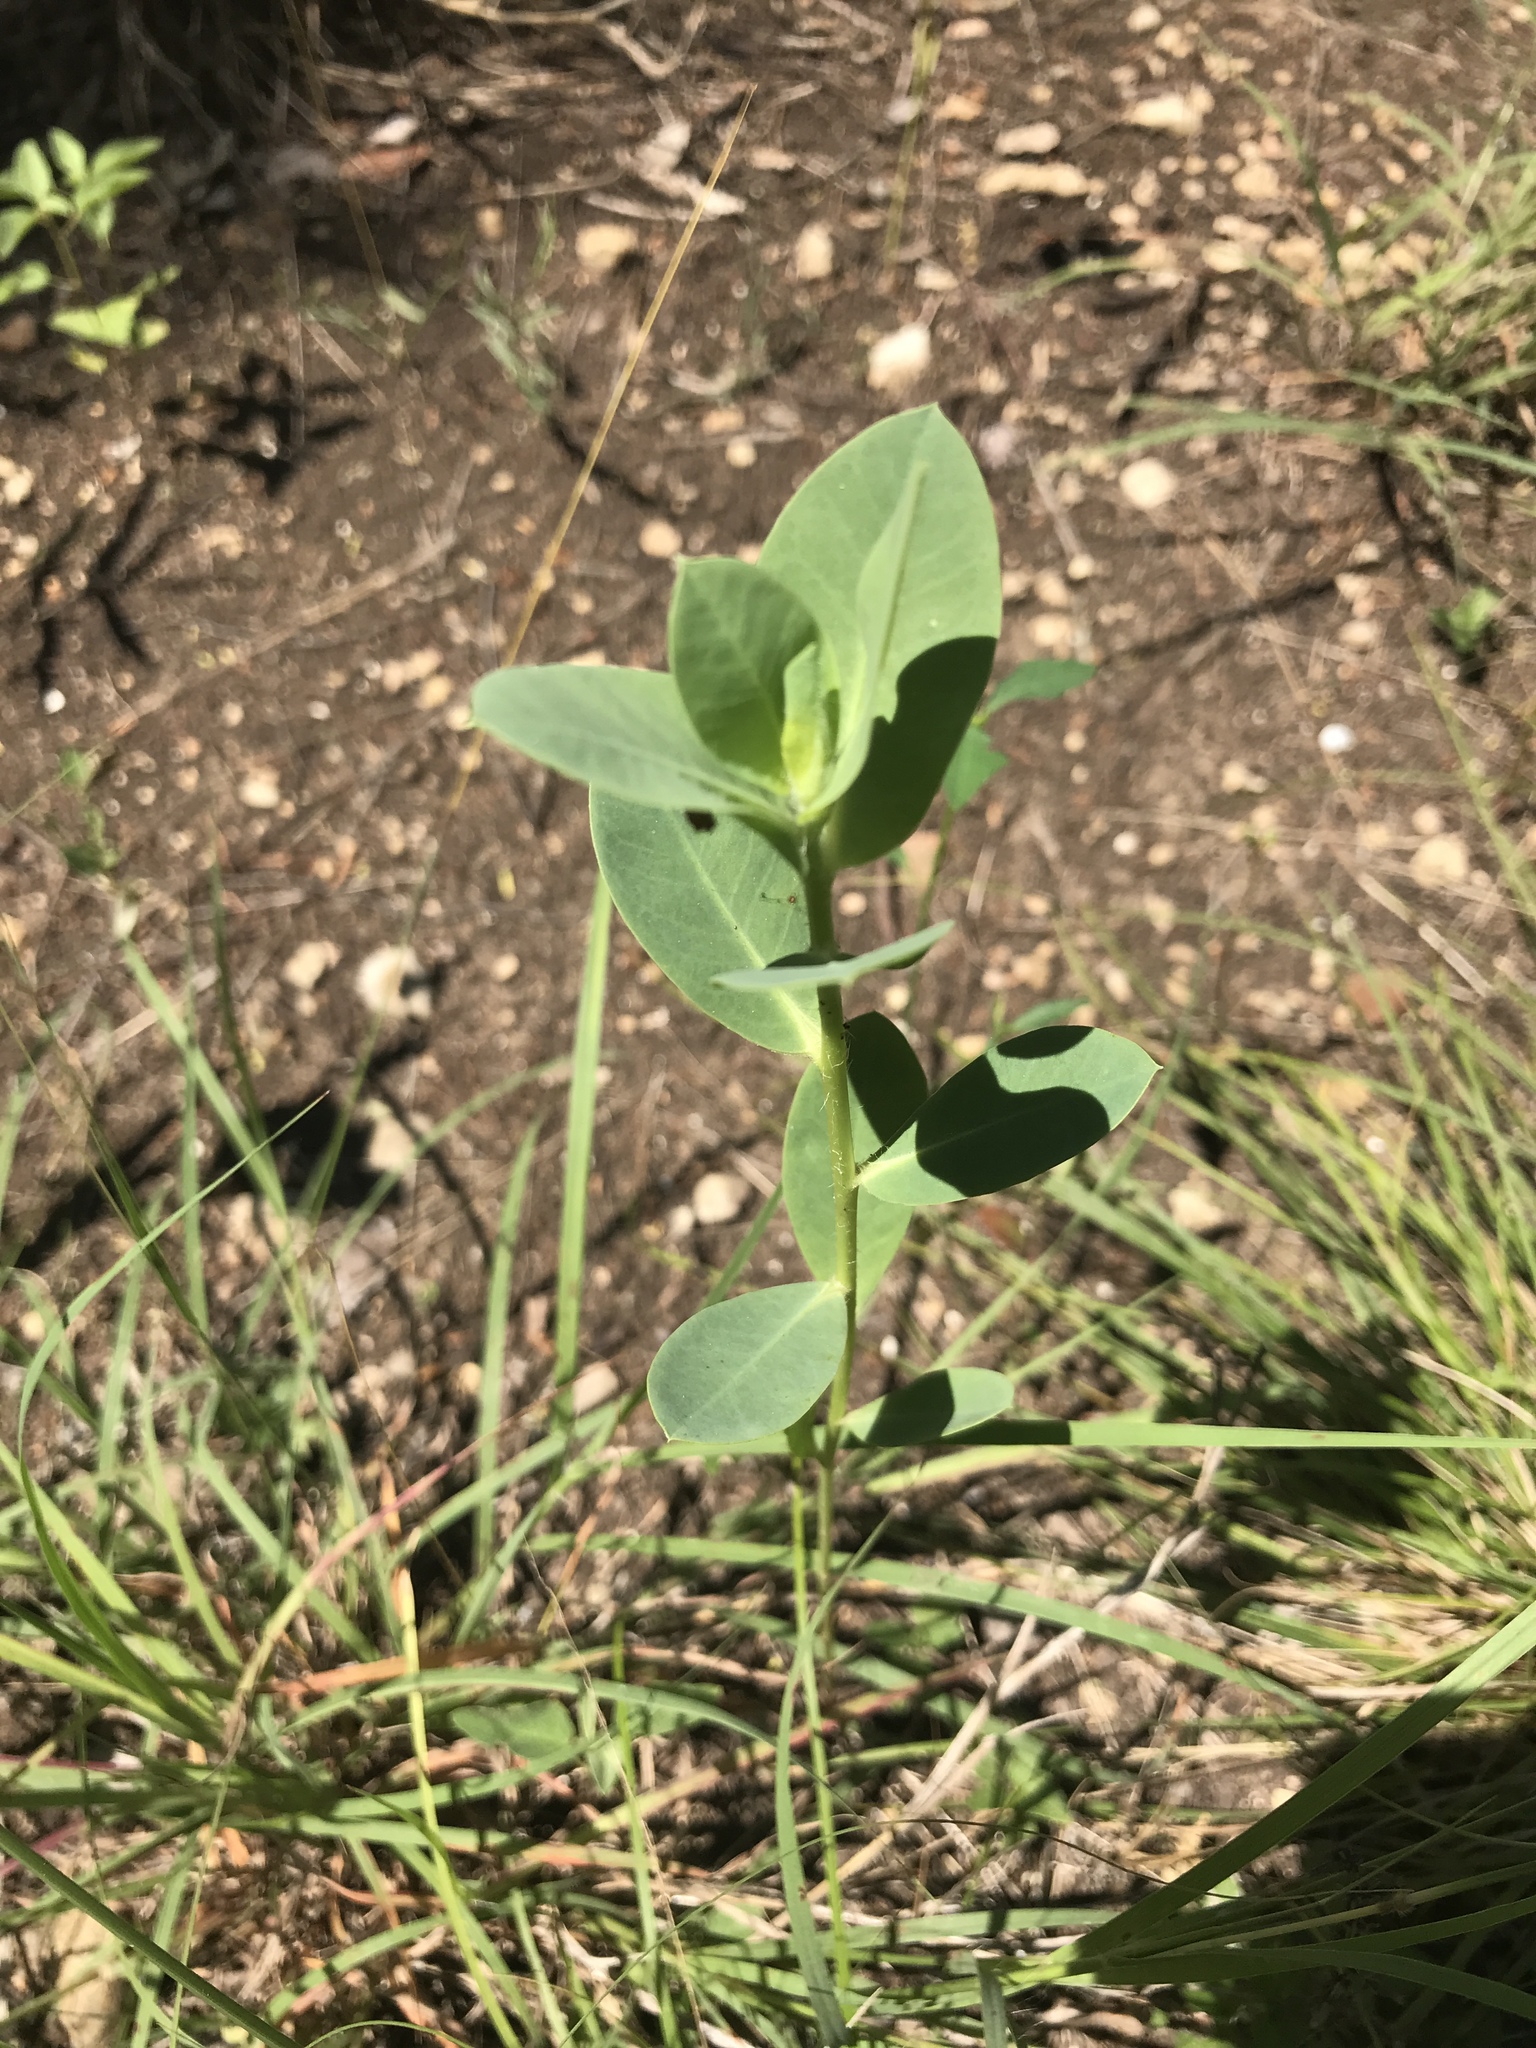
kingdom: Plantae
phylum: Tracheophyta
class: Magnoliopsida
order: Malpighiales
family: Euphorbiaceae
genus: Euphorbia
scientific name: Euphorbia marginata
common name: Ghostweed
